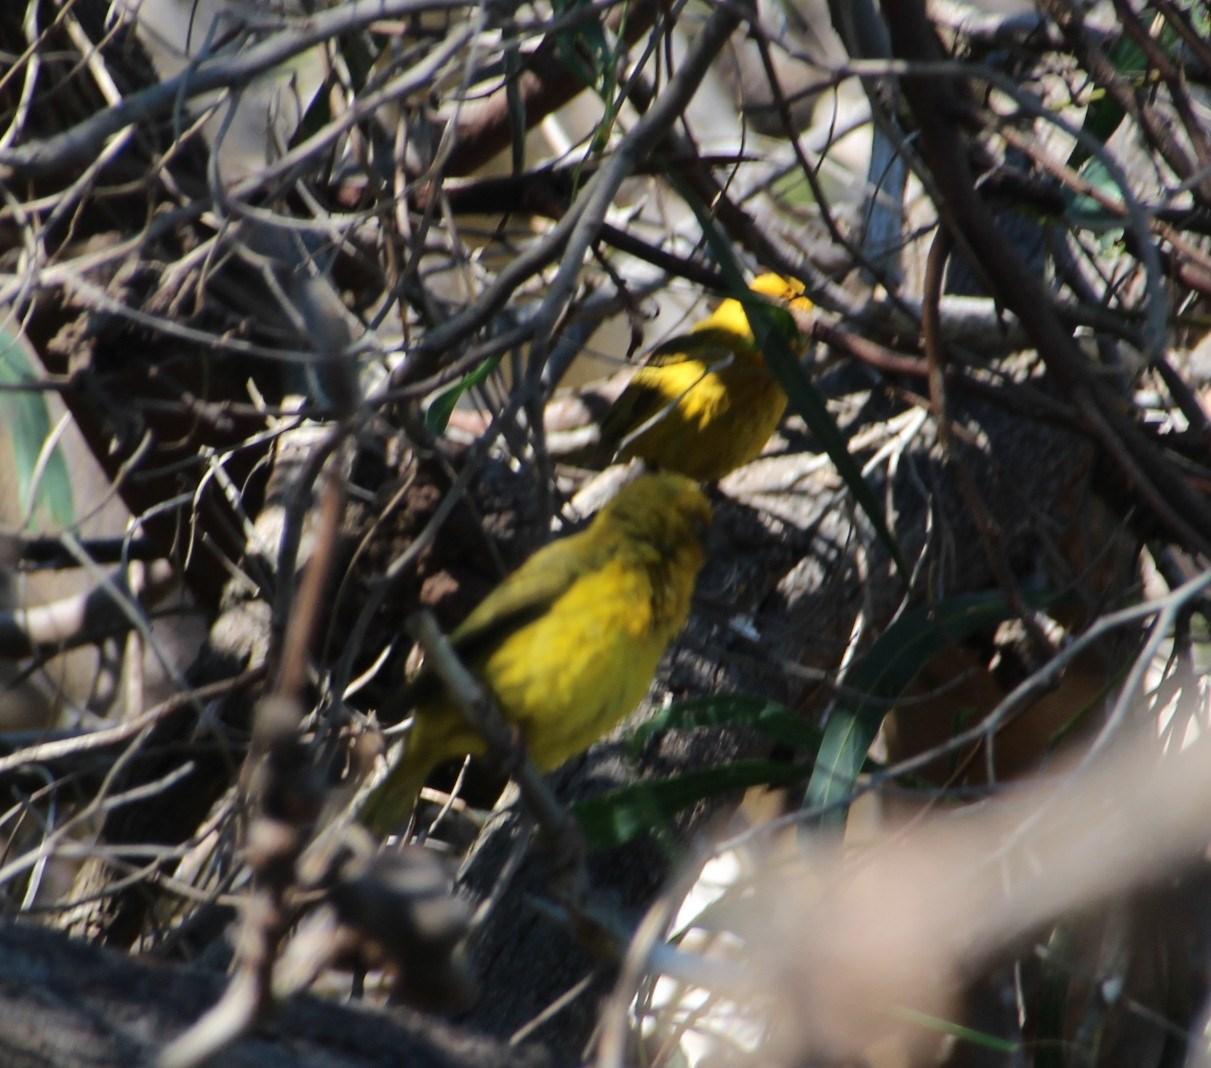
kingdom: Animalia
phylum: Chordata
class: Aves
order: Passeriformes
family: Ploceidae
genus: Ploceus
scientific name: Ploceus capensis
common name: Cape weaver
